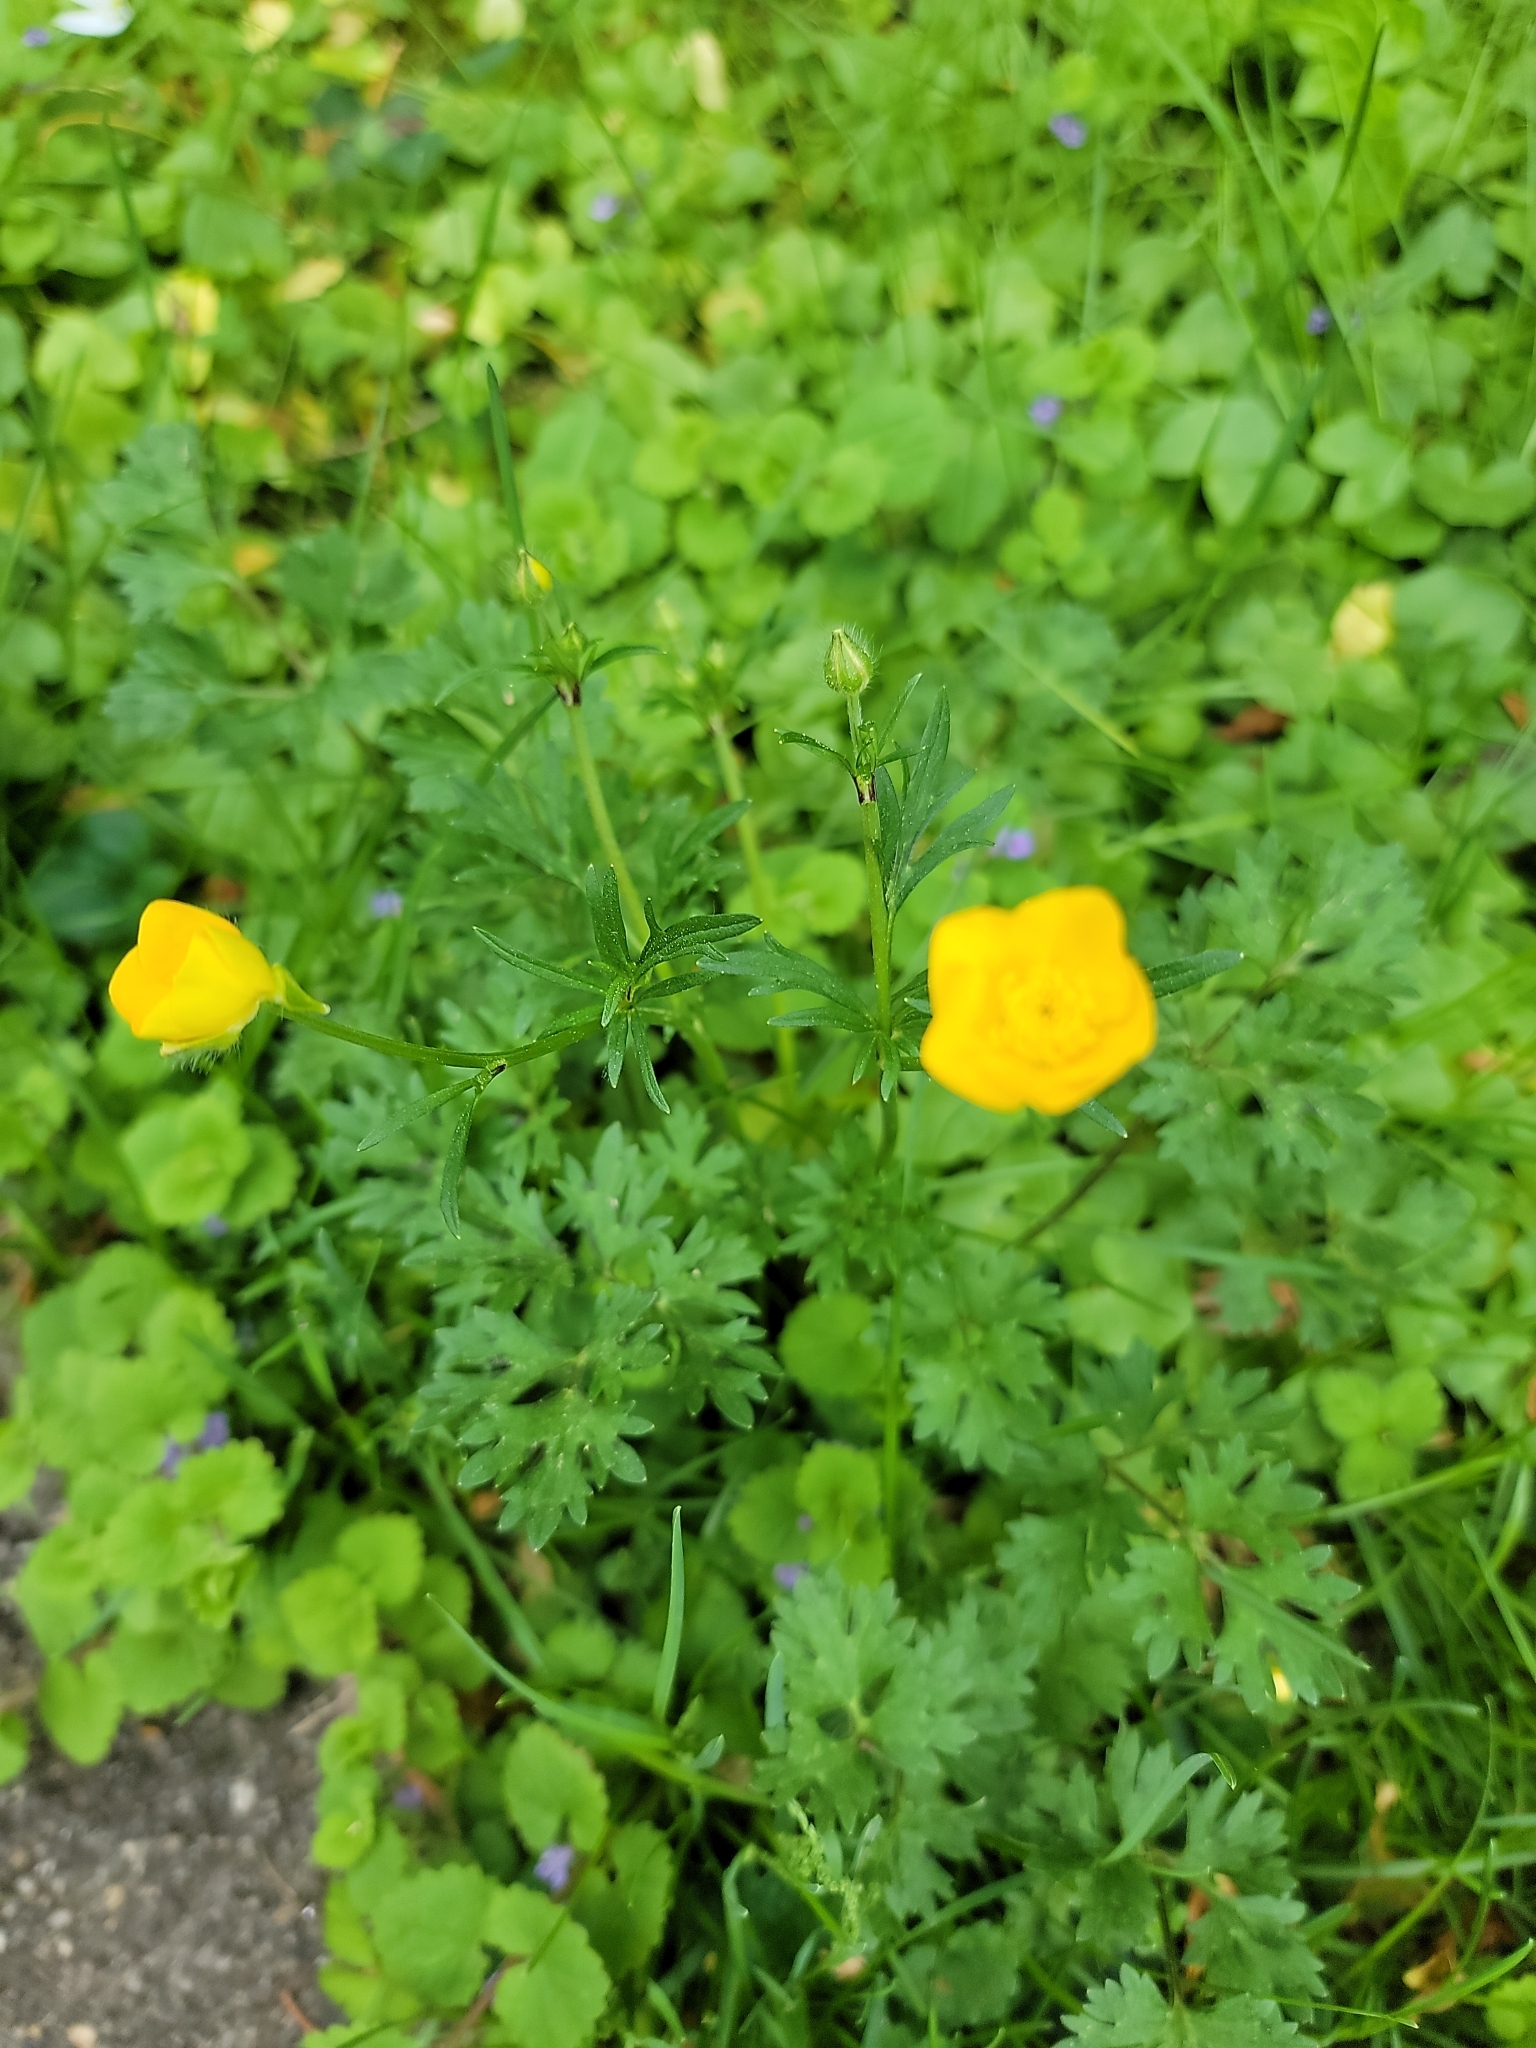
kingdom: Plantae
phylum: Tracheophyta
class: Magnoliopsida
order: Ranunculales
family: Ranunculaceae
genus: Ranunculus
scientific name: Ranunculus bulbosus
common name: Bulbous buttercup
